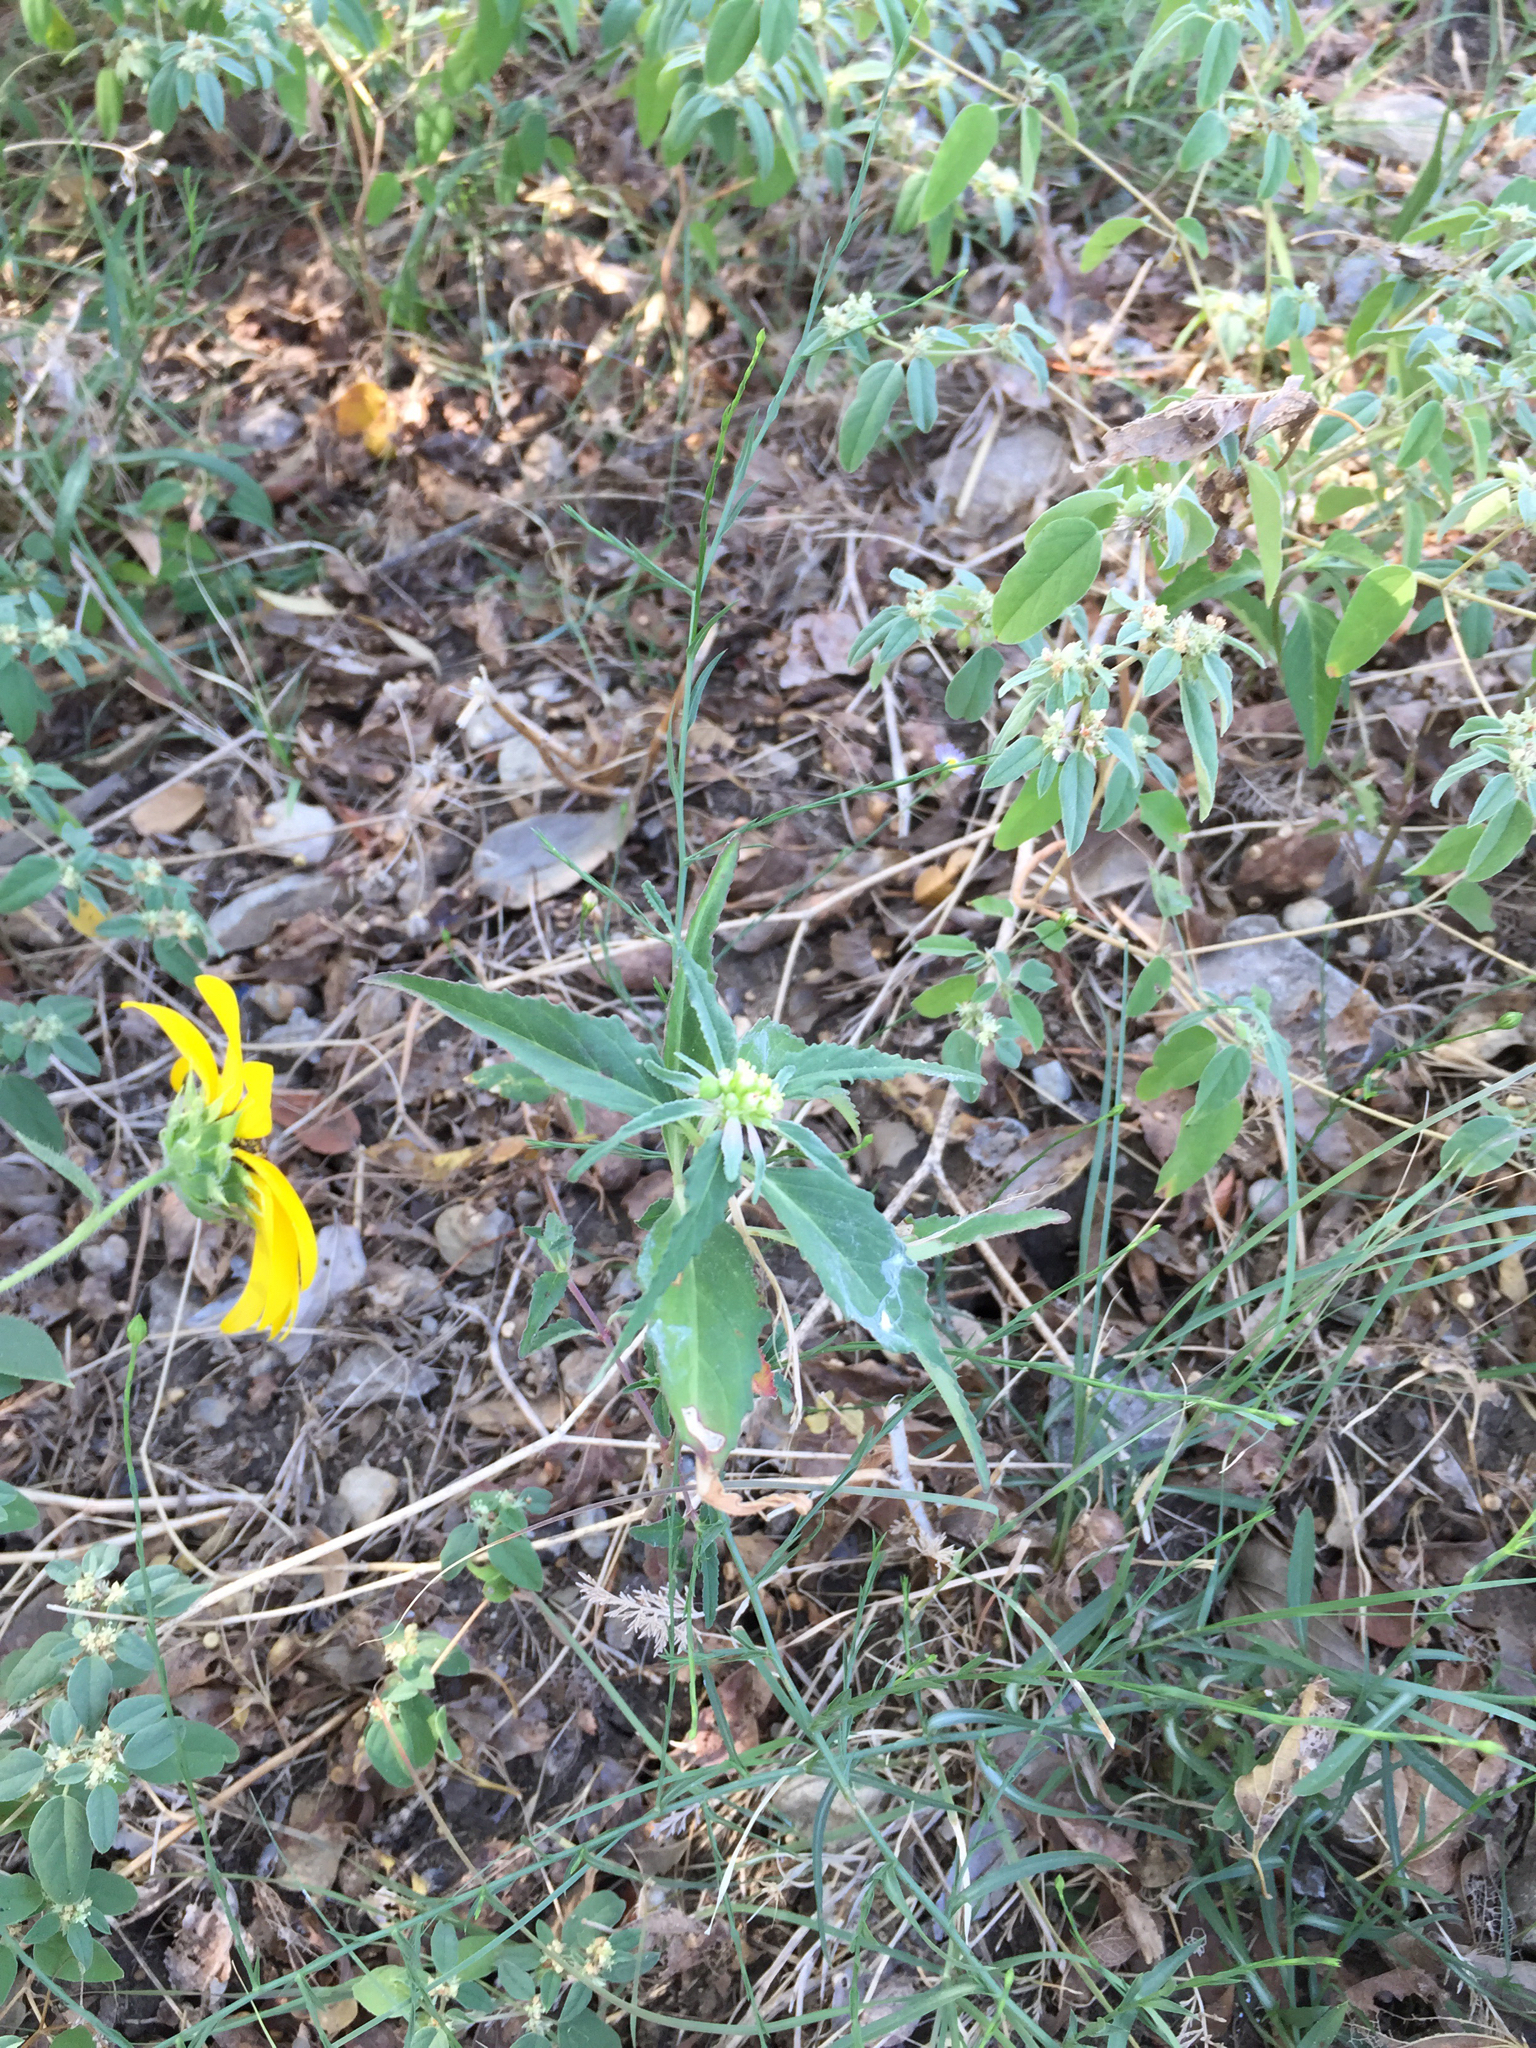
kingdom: Plantae
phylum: Tracheophyta
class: Magnoliopsida
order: Malpighiales
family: Euphorbiaceae
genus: Euphorbia
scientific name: Euphorbia dentata
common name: Dentate spurge
